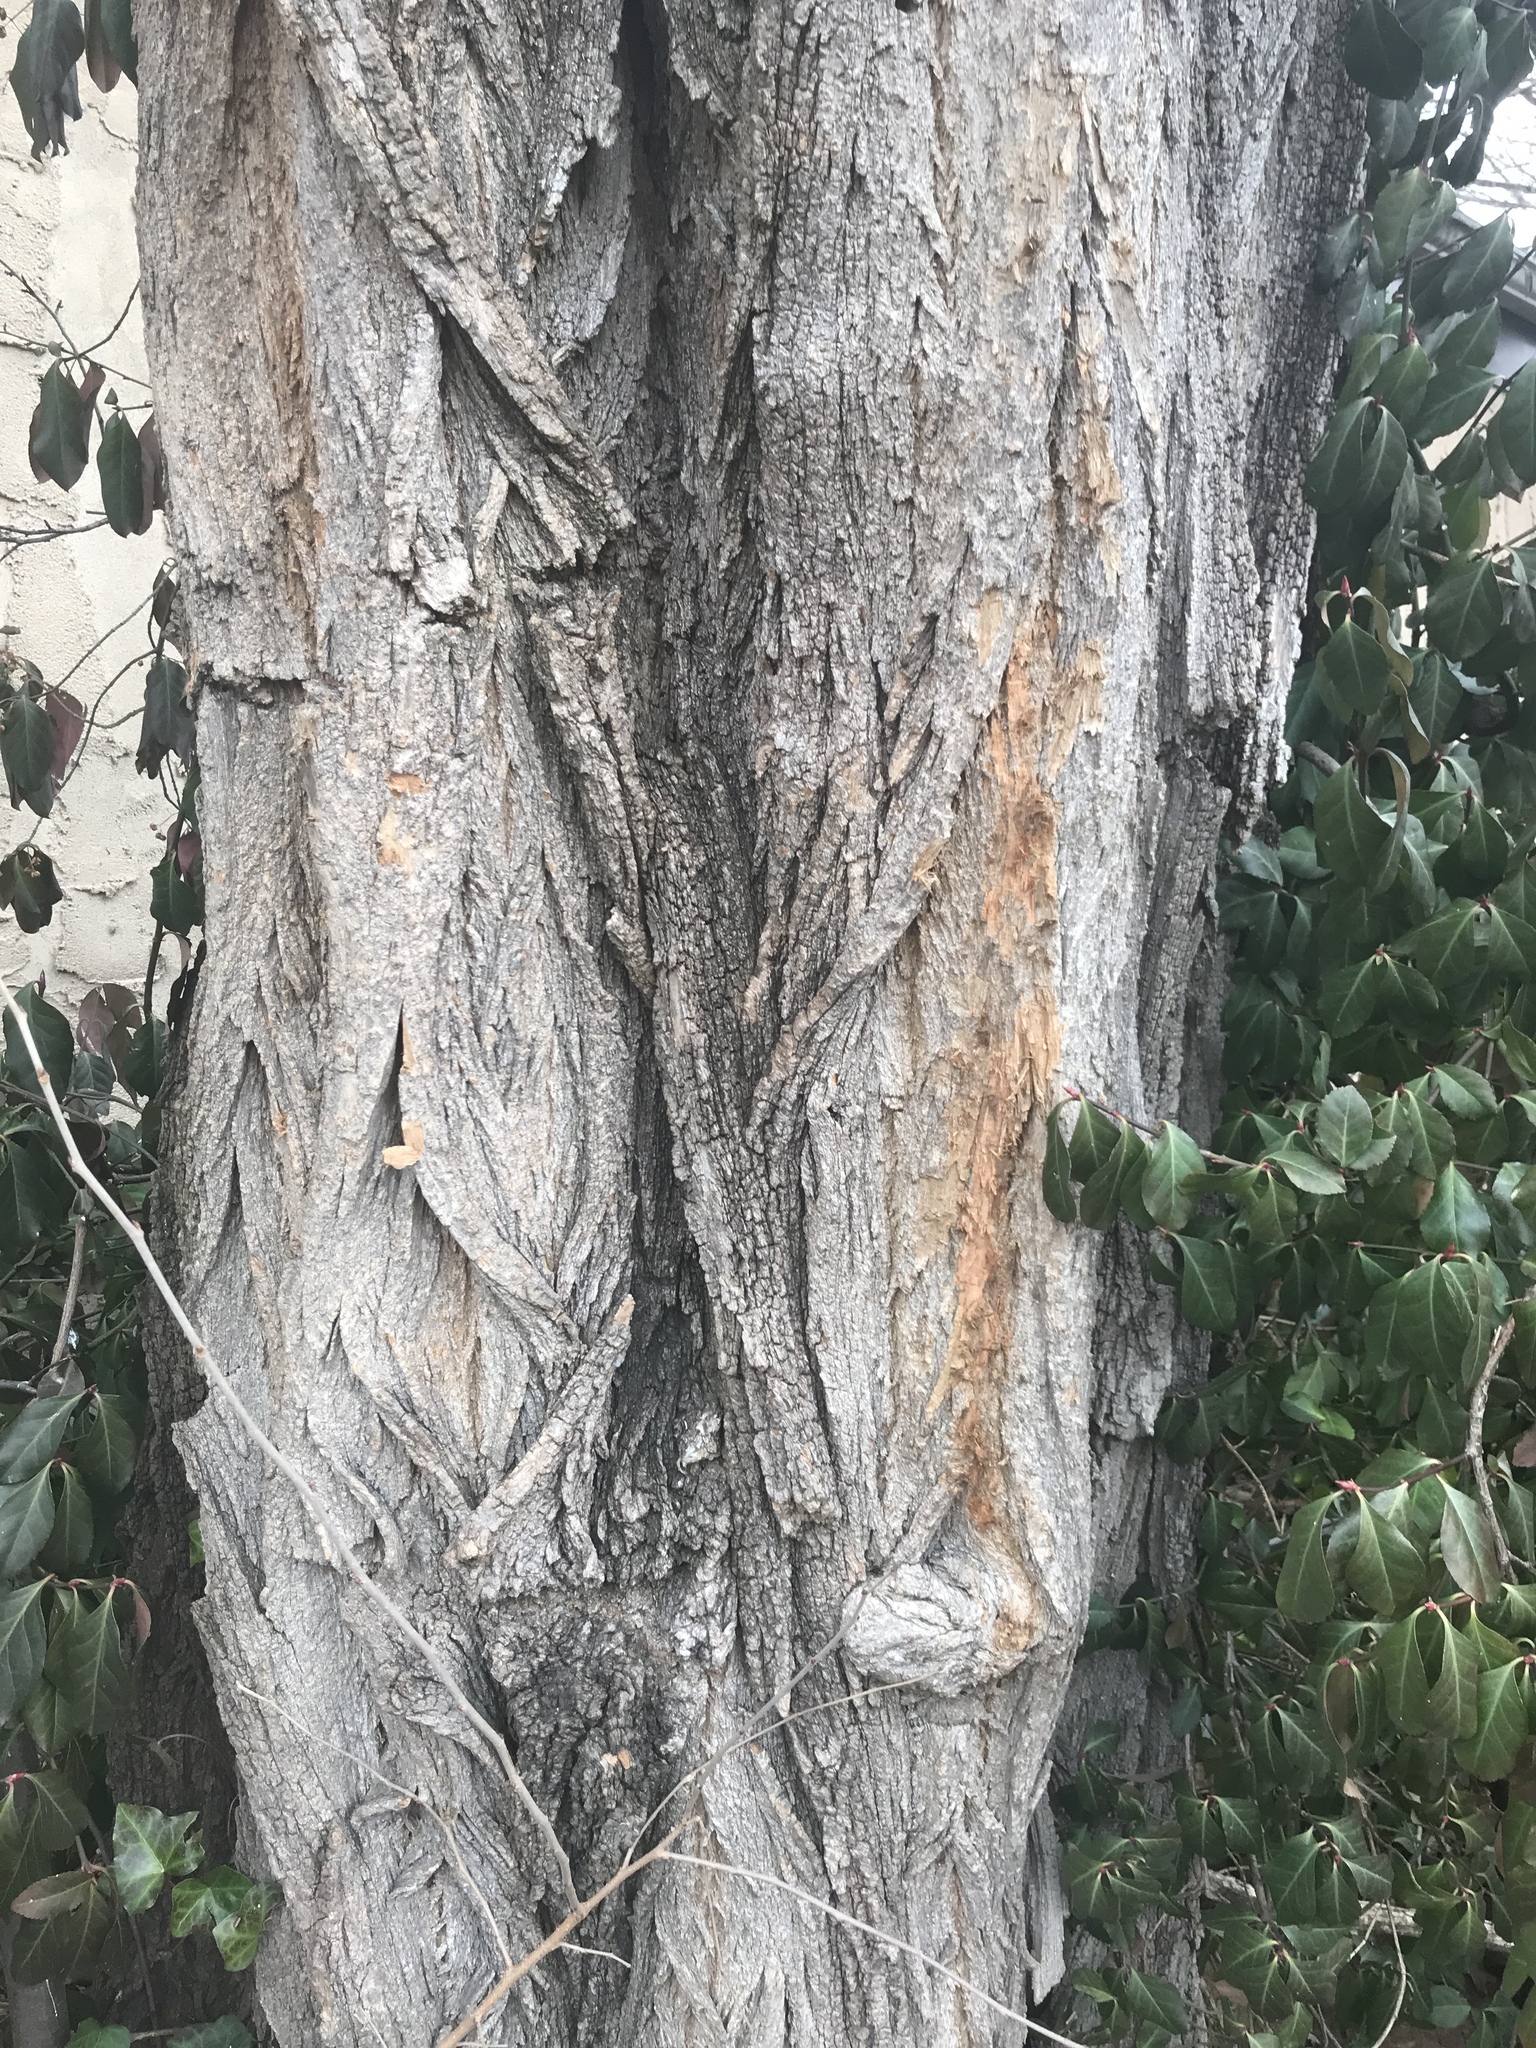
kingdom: Plantae
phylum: Tracheophyta
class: Magnoliopsida
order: Fabales
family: Fabaceae
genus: Robinia
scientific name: Robinia pseudoacacia
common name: Black locust
